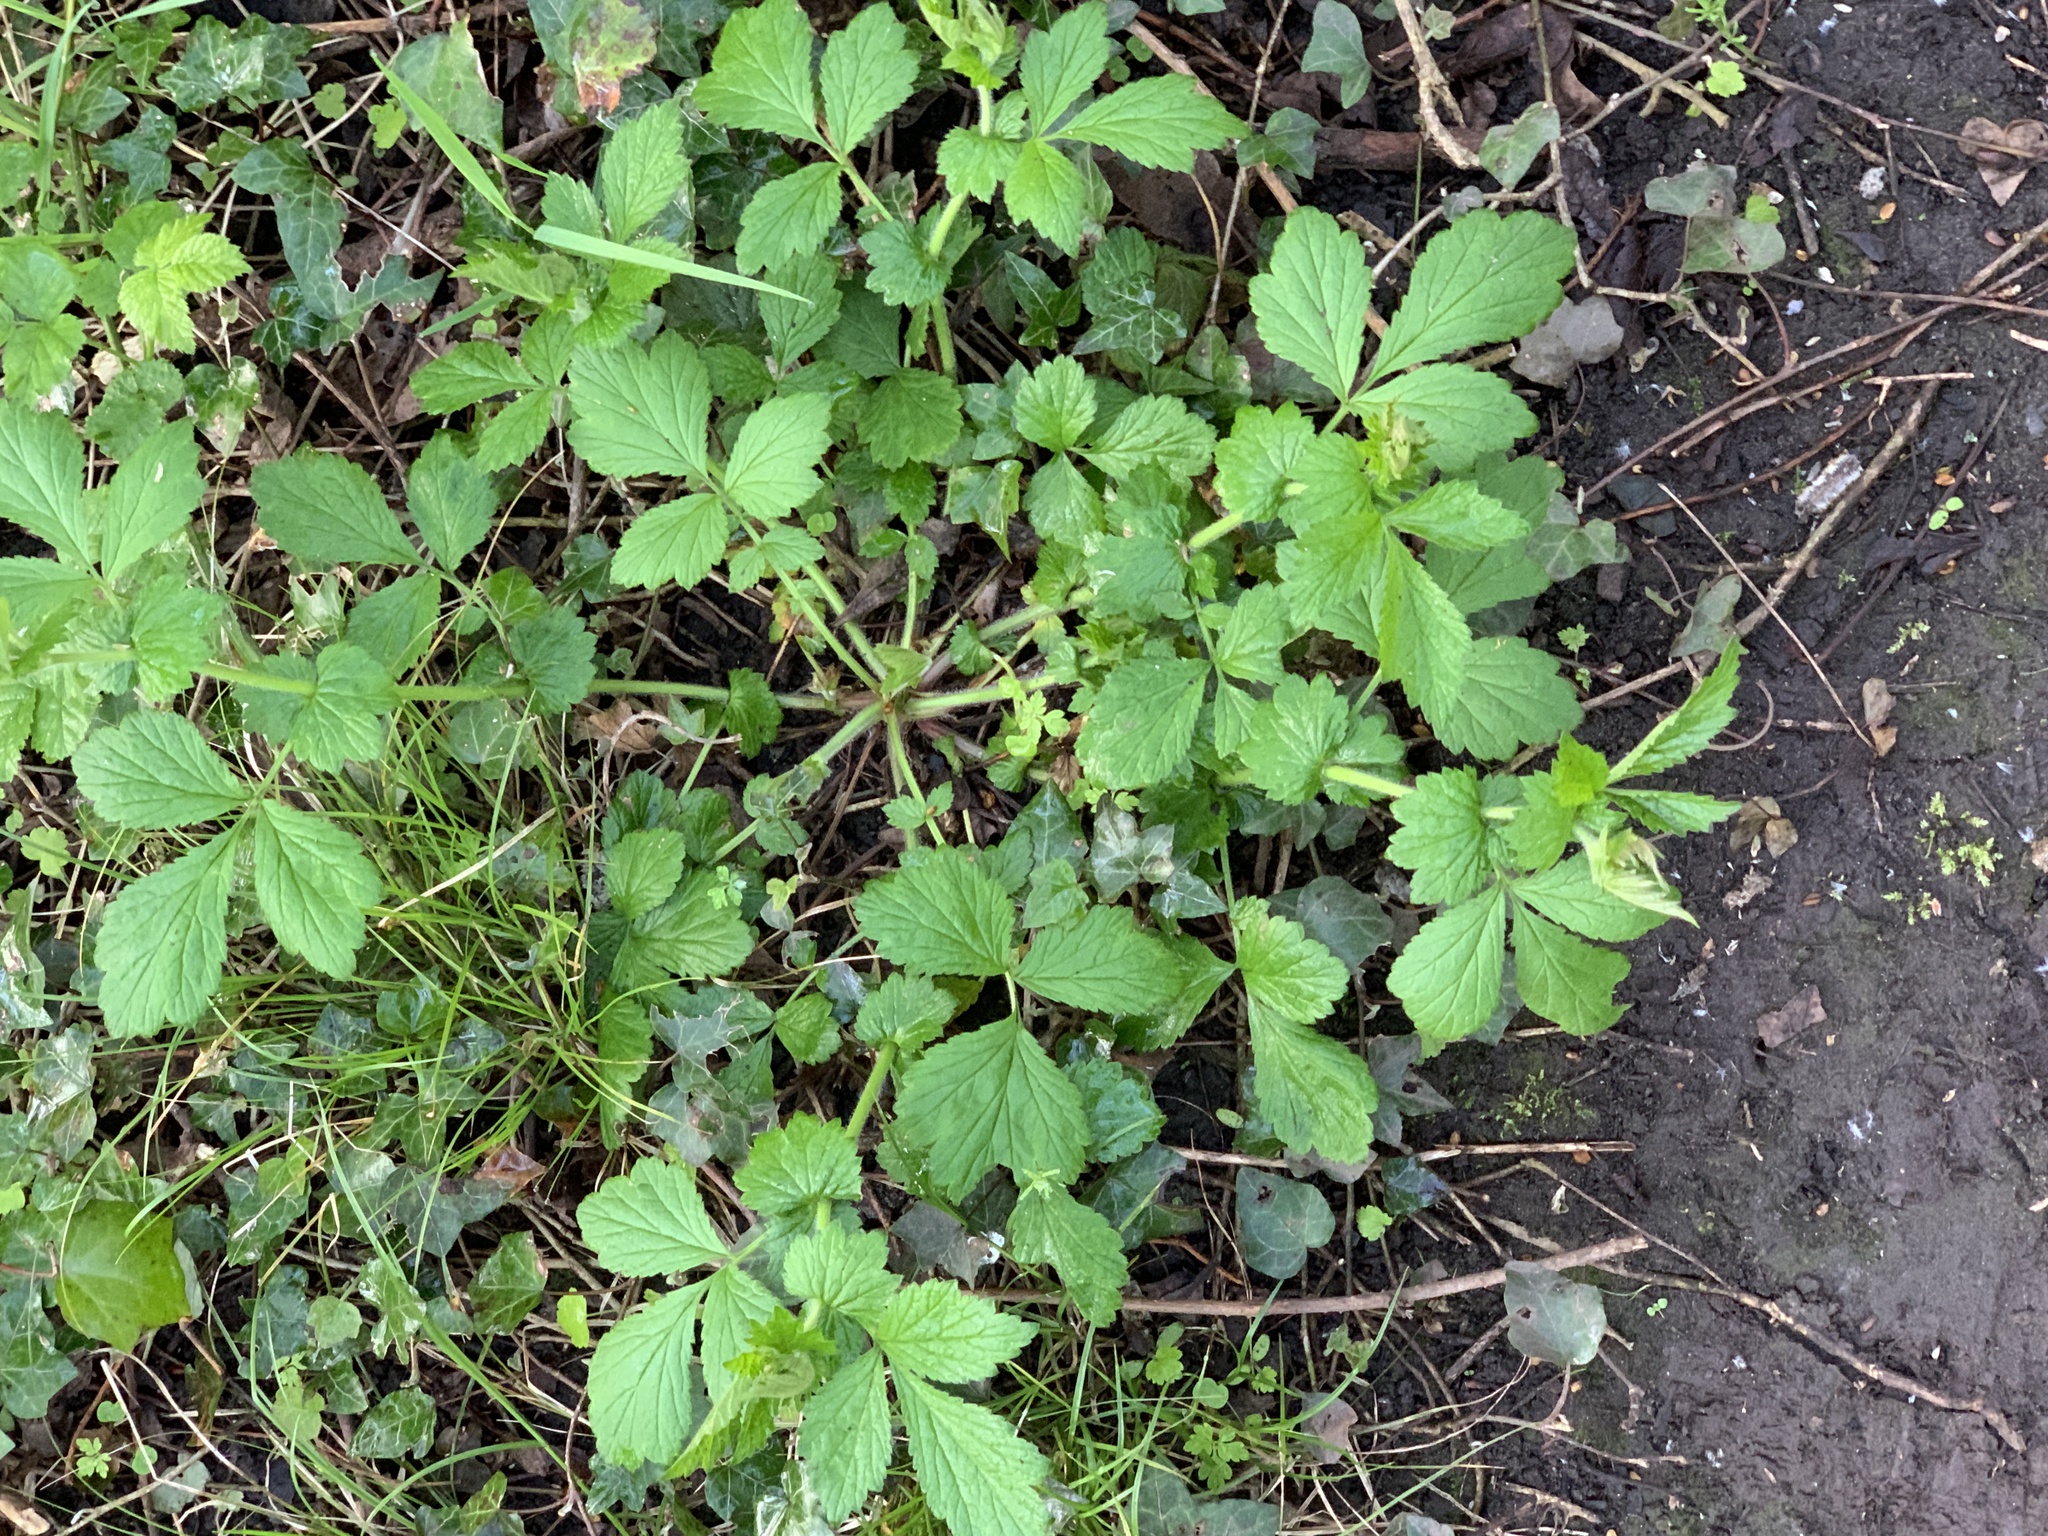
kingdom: Plantae
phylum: Tracheophyta
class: Magnoliopsida
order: Rosales
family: Rosaceae
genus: Geum
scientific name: Geum urbanum
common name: Wood avens
